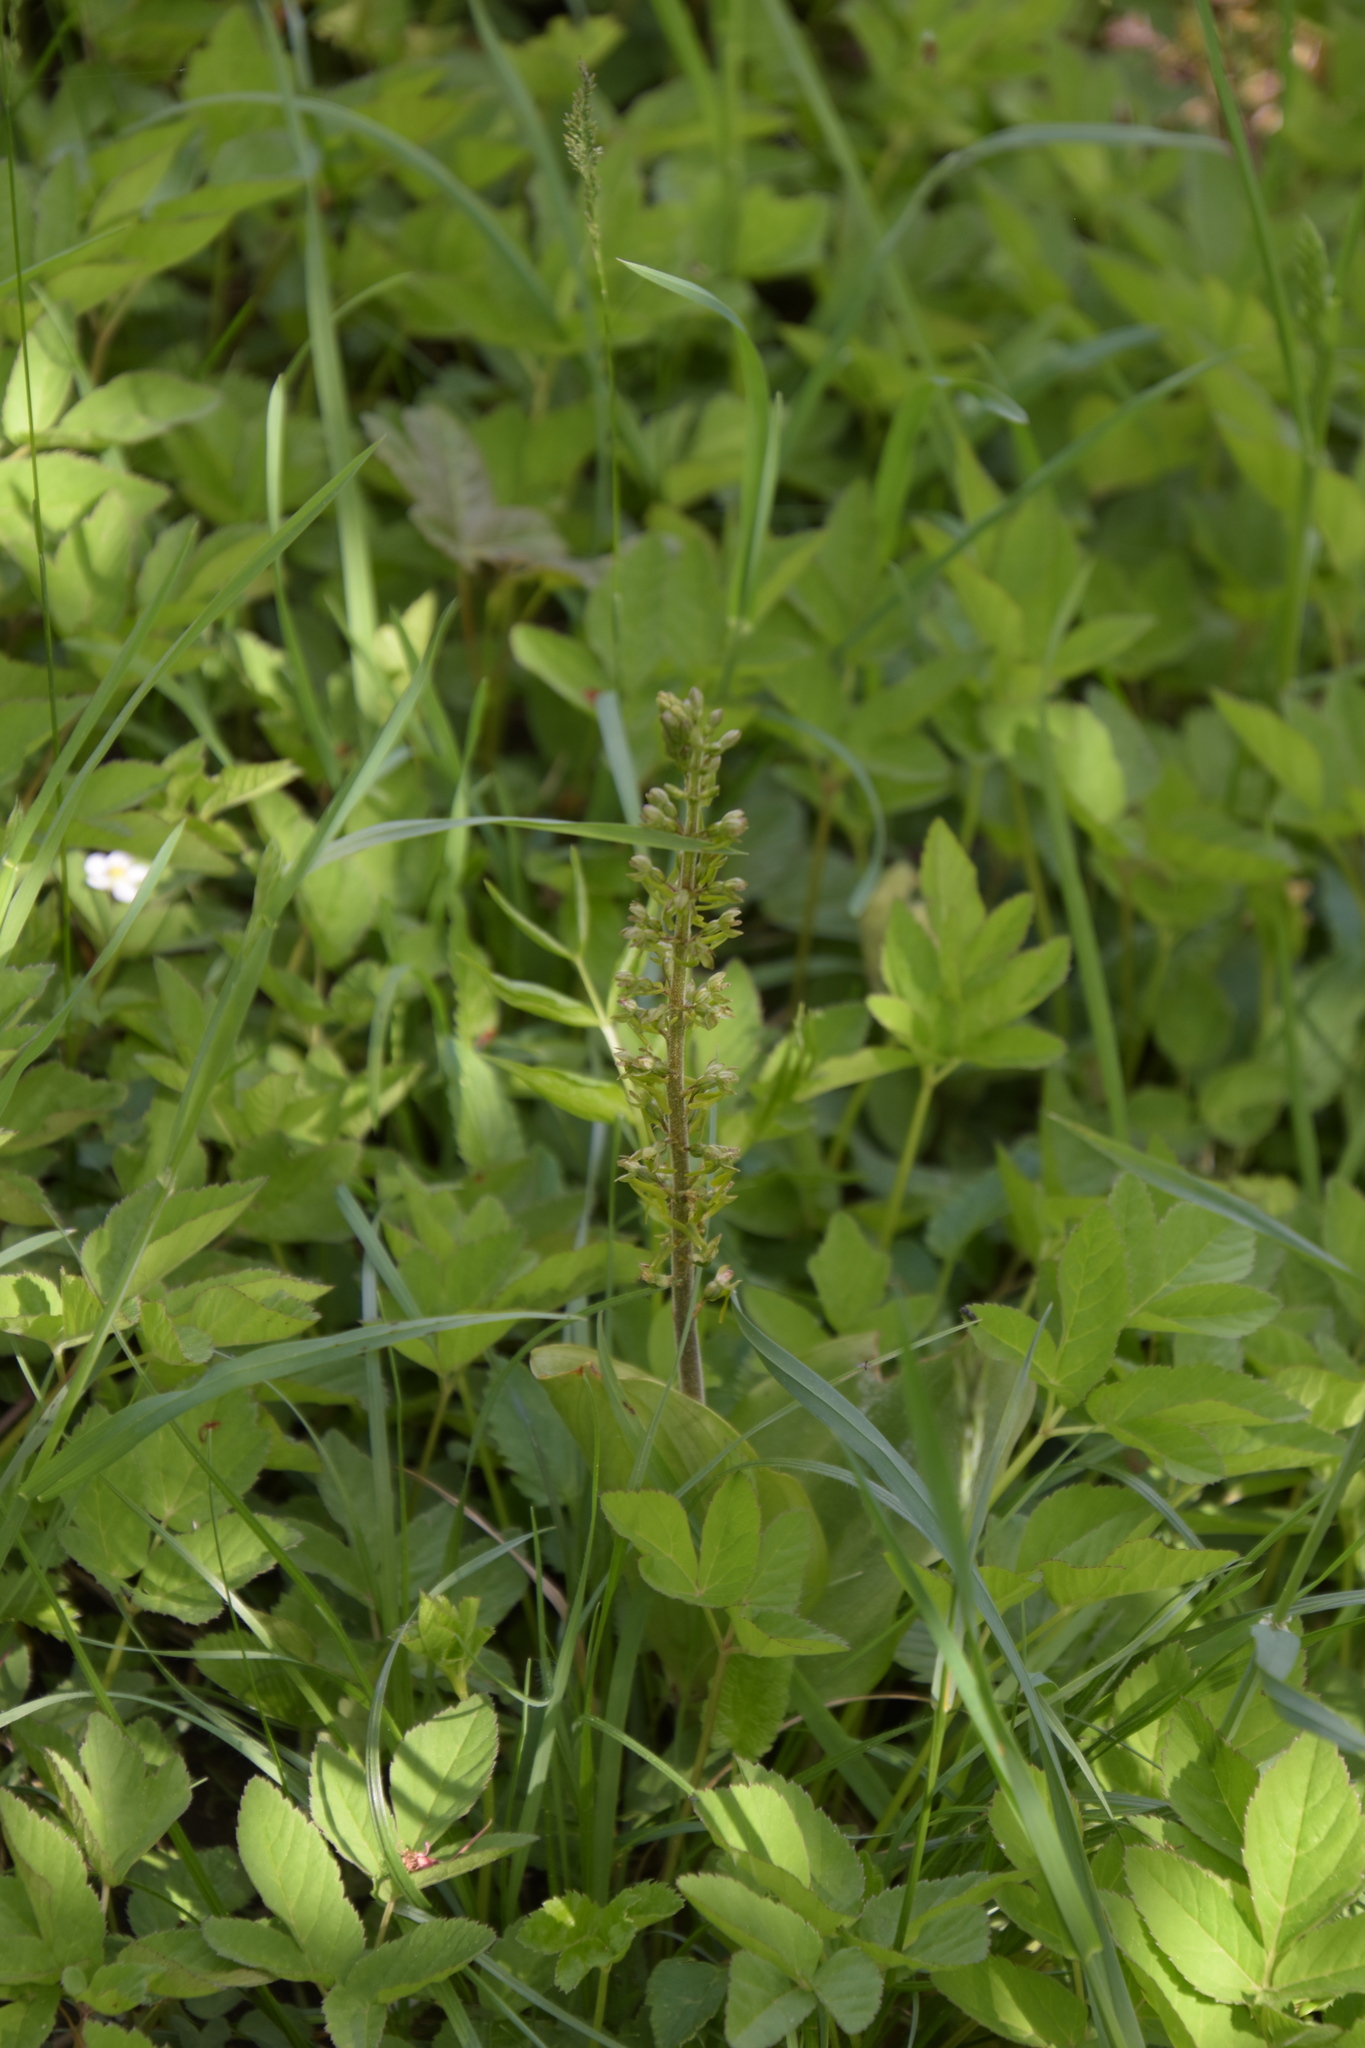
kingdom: Plantae
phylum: Tracheophyta
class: Liliopsida
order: Asparagales
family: Orchidaceae
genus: Neottia
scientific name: Neottia ovata
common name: Common twayblade
